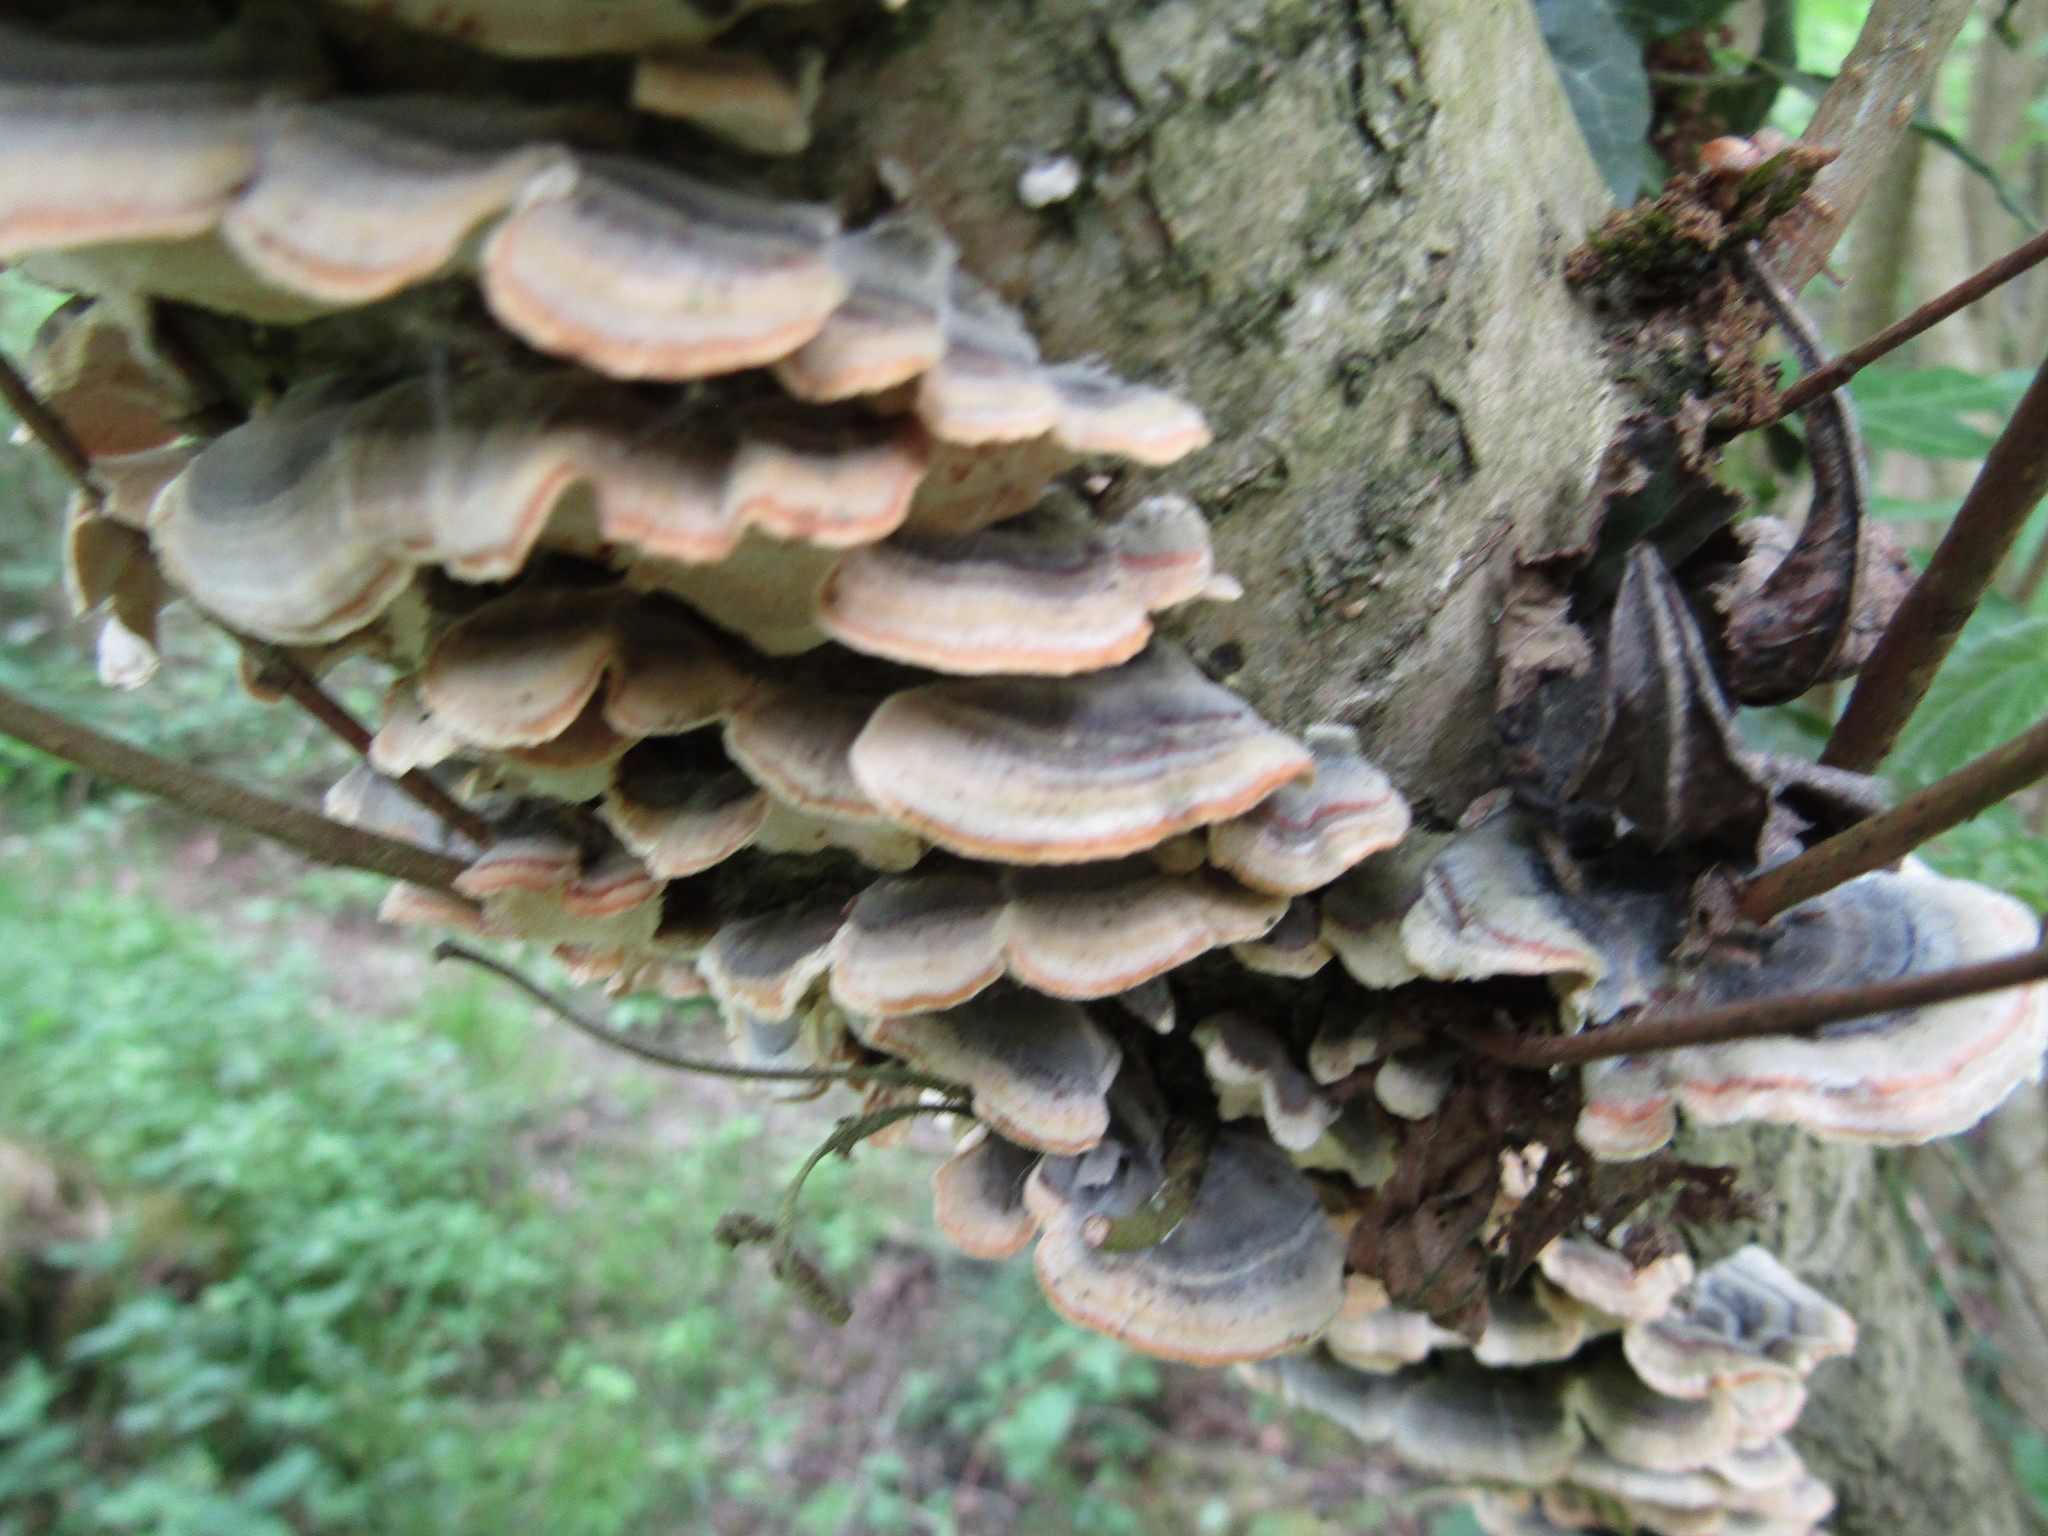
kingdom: Fungi
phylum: Basidiomycota
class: Agaricomycetes
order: Polyporales
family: Polyporaceae
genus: Trametes
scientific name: Trametes versicolor
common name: Turkeytail
